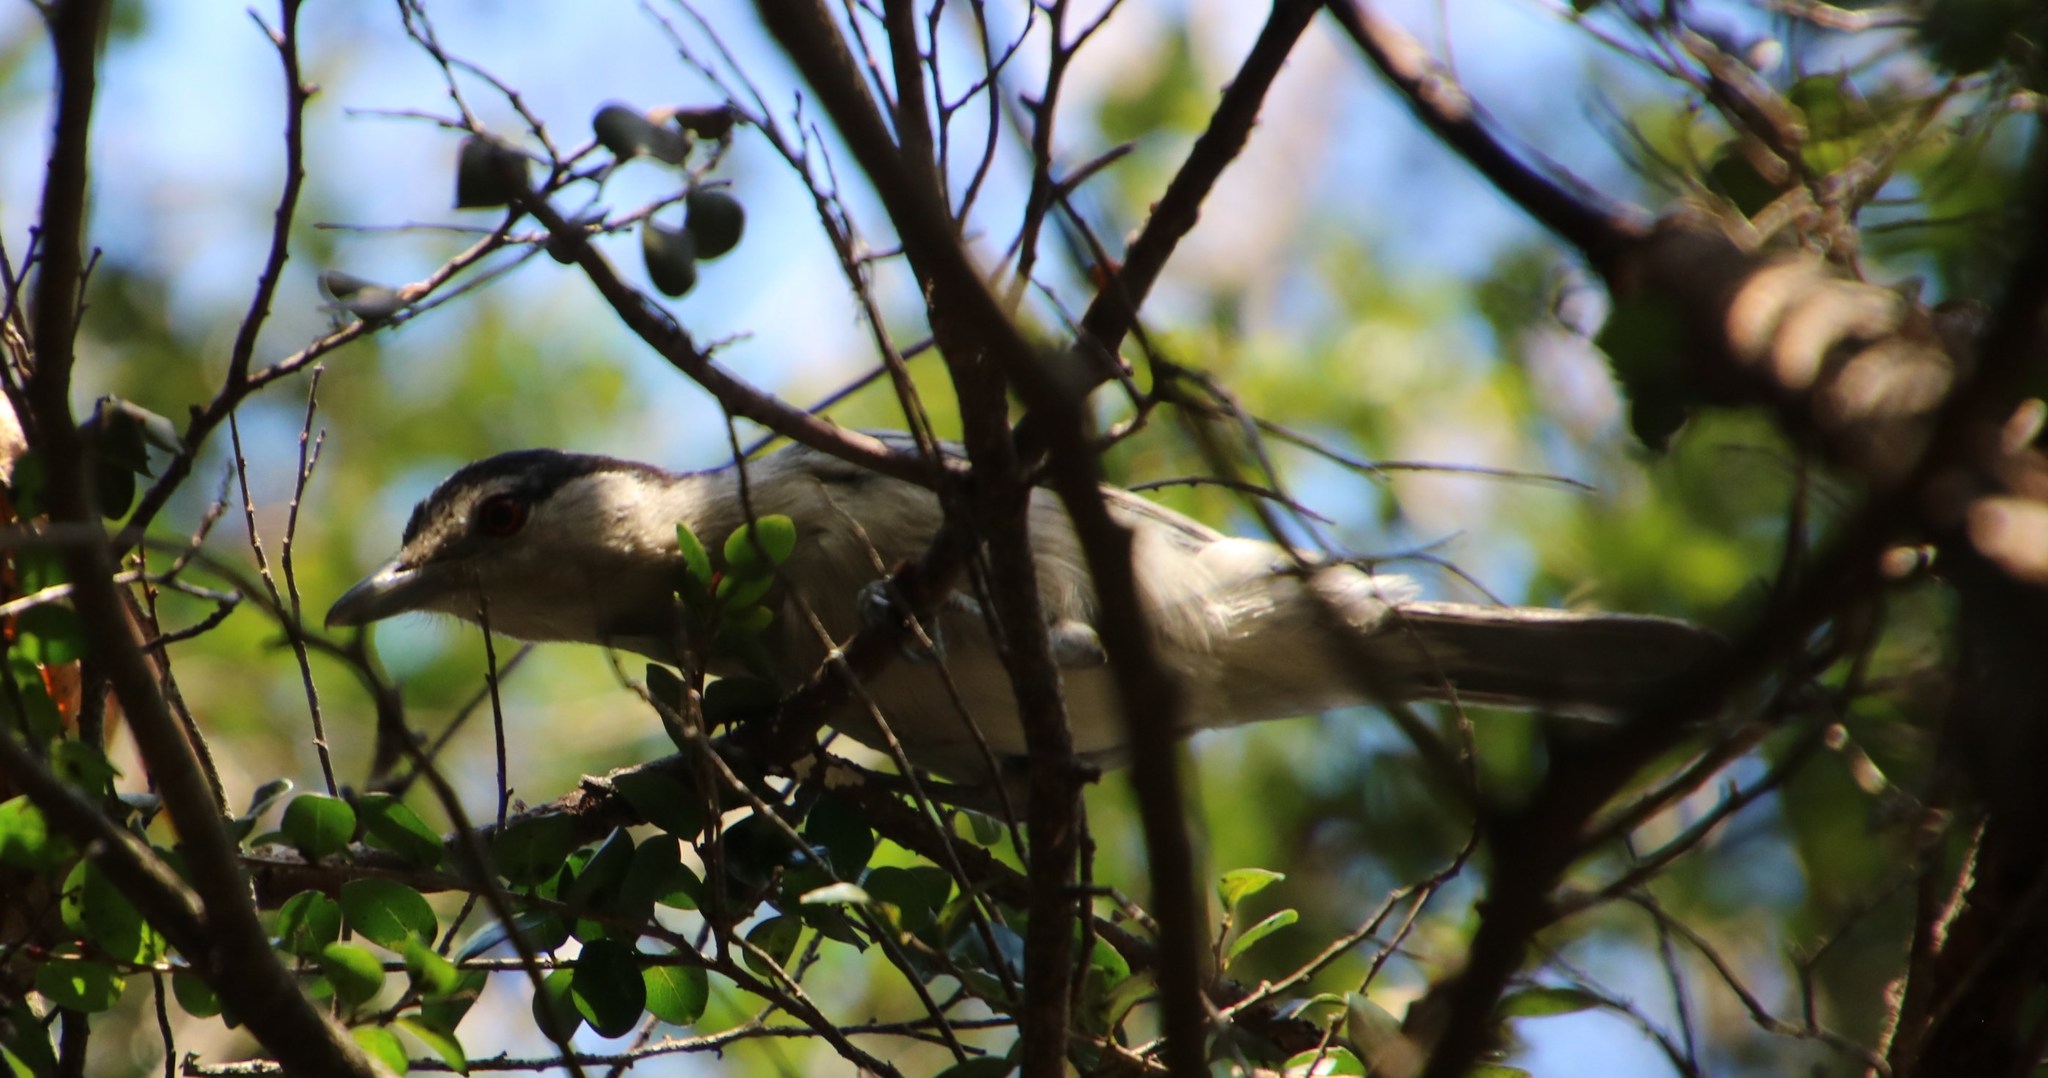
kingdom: Animalia
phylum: Chordata
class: Aves
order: Passeriformes
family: Malaconotidae
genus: Dryoscopus
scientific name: Dryoscopus cubla
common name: Black-backed puffback
